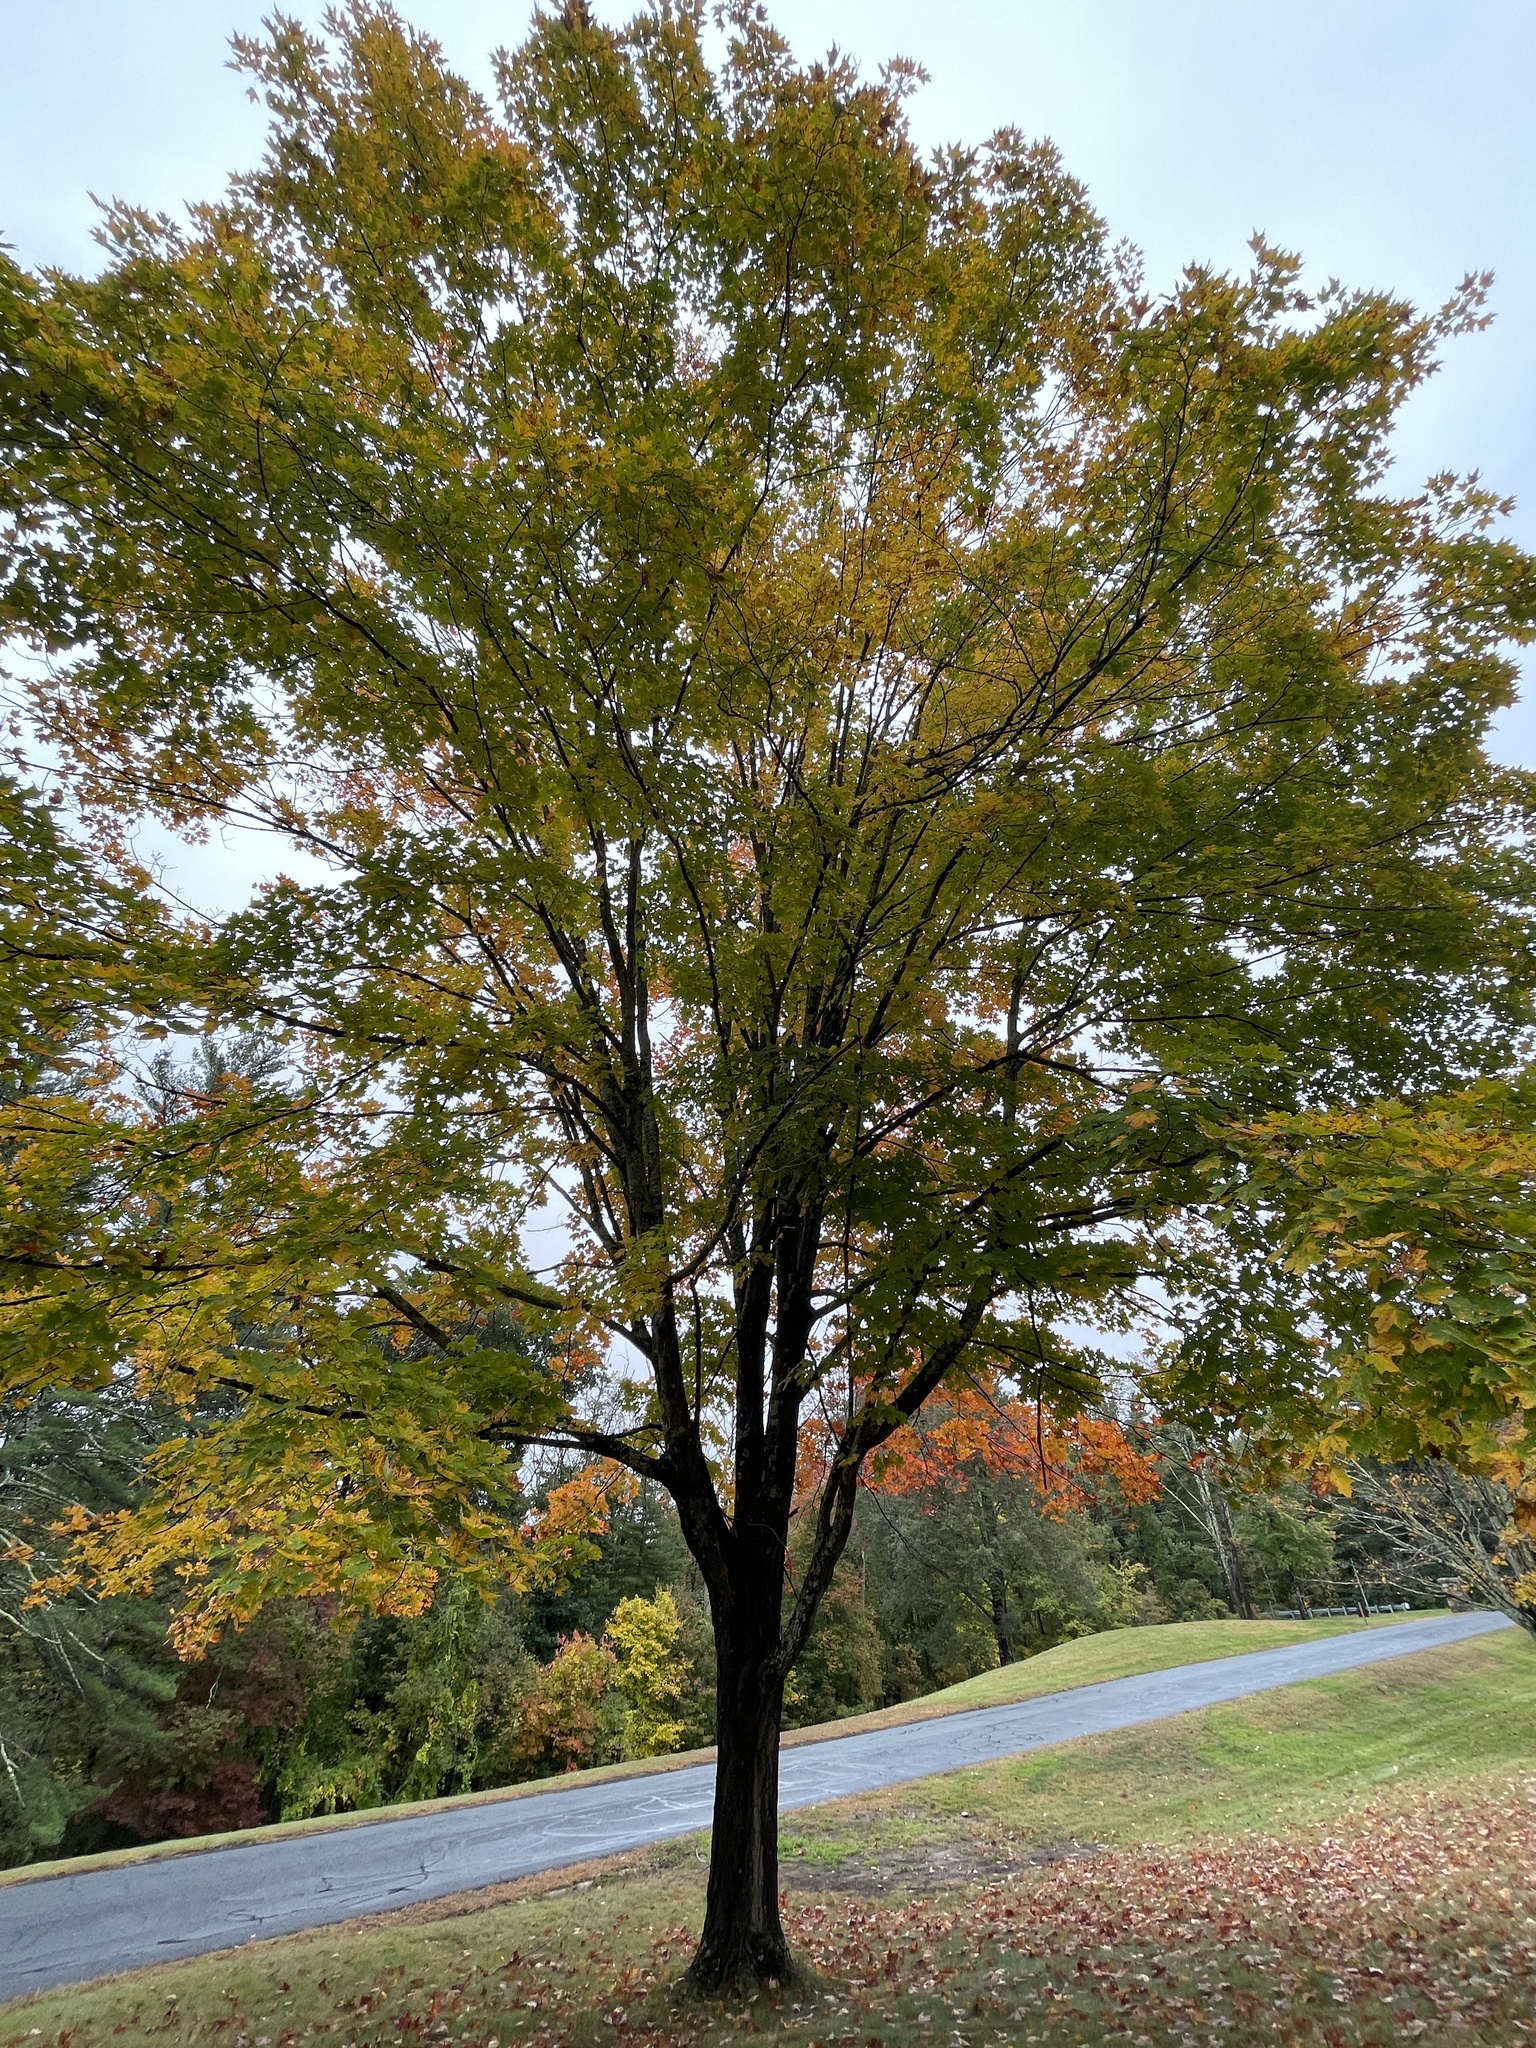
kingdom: Plantae
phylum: Tracheophyta
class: Magnoliopsida
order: Sapindales
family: Sapindaceae
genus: Acer
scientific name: Acer saccharum
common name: Sugar maple
